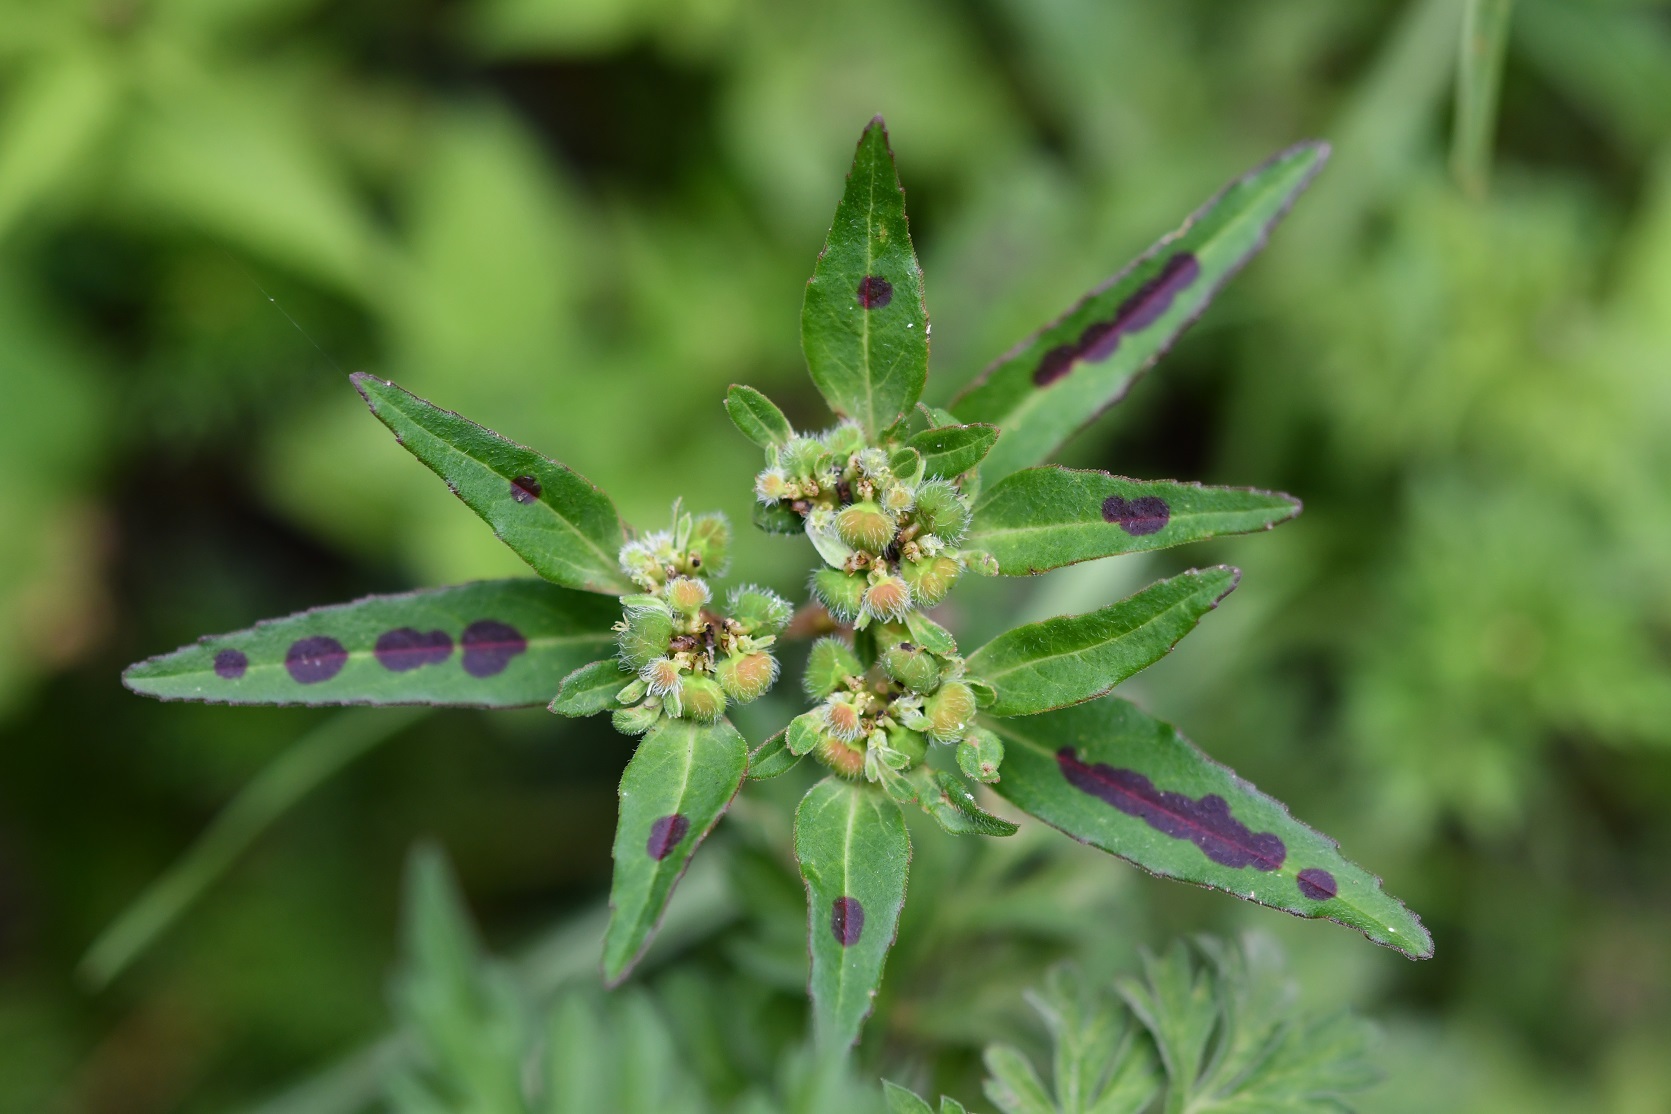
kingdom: Plantae
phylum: Tracheophyta
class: Magnoliopsida
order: Malpighiales
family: Euphorbiaceae
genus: Euphorbia
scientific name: Euphorbia tubadenia
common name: Spurge
